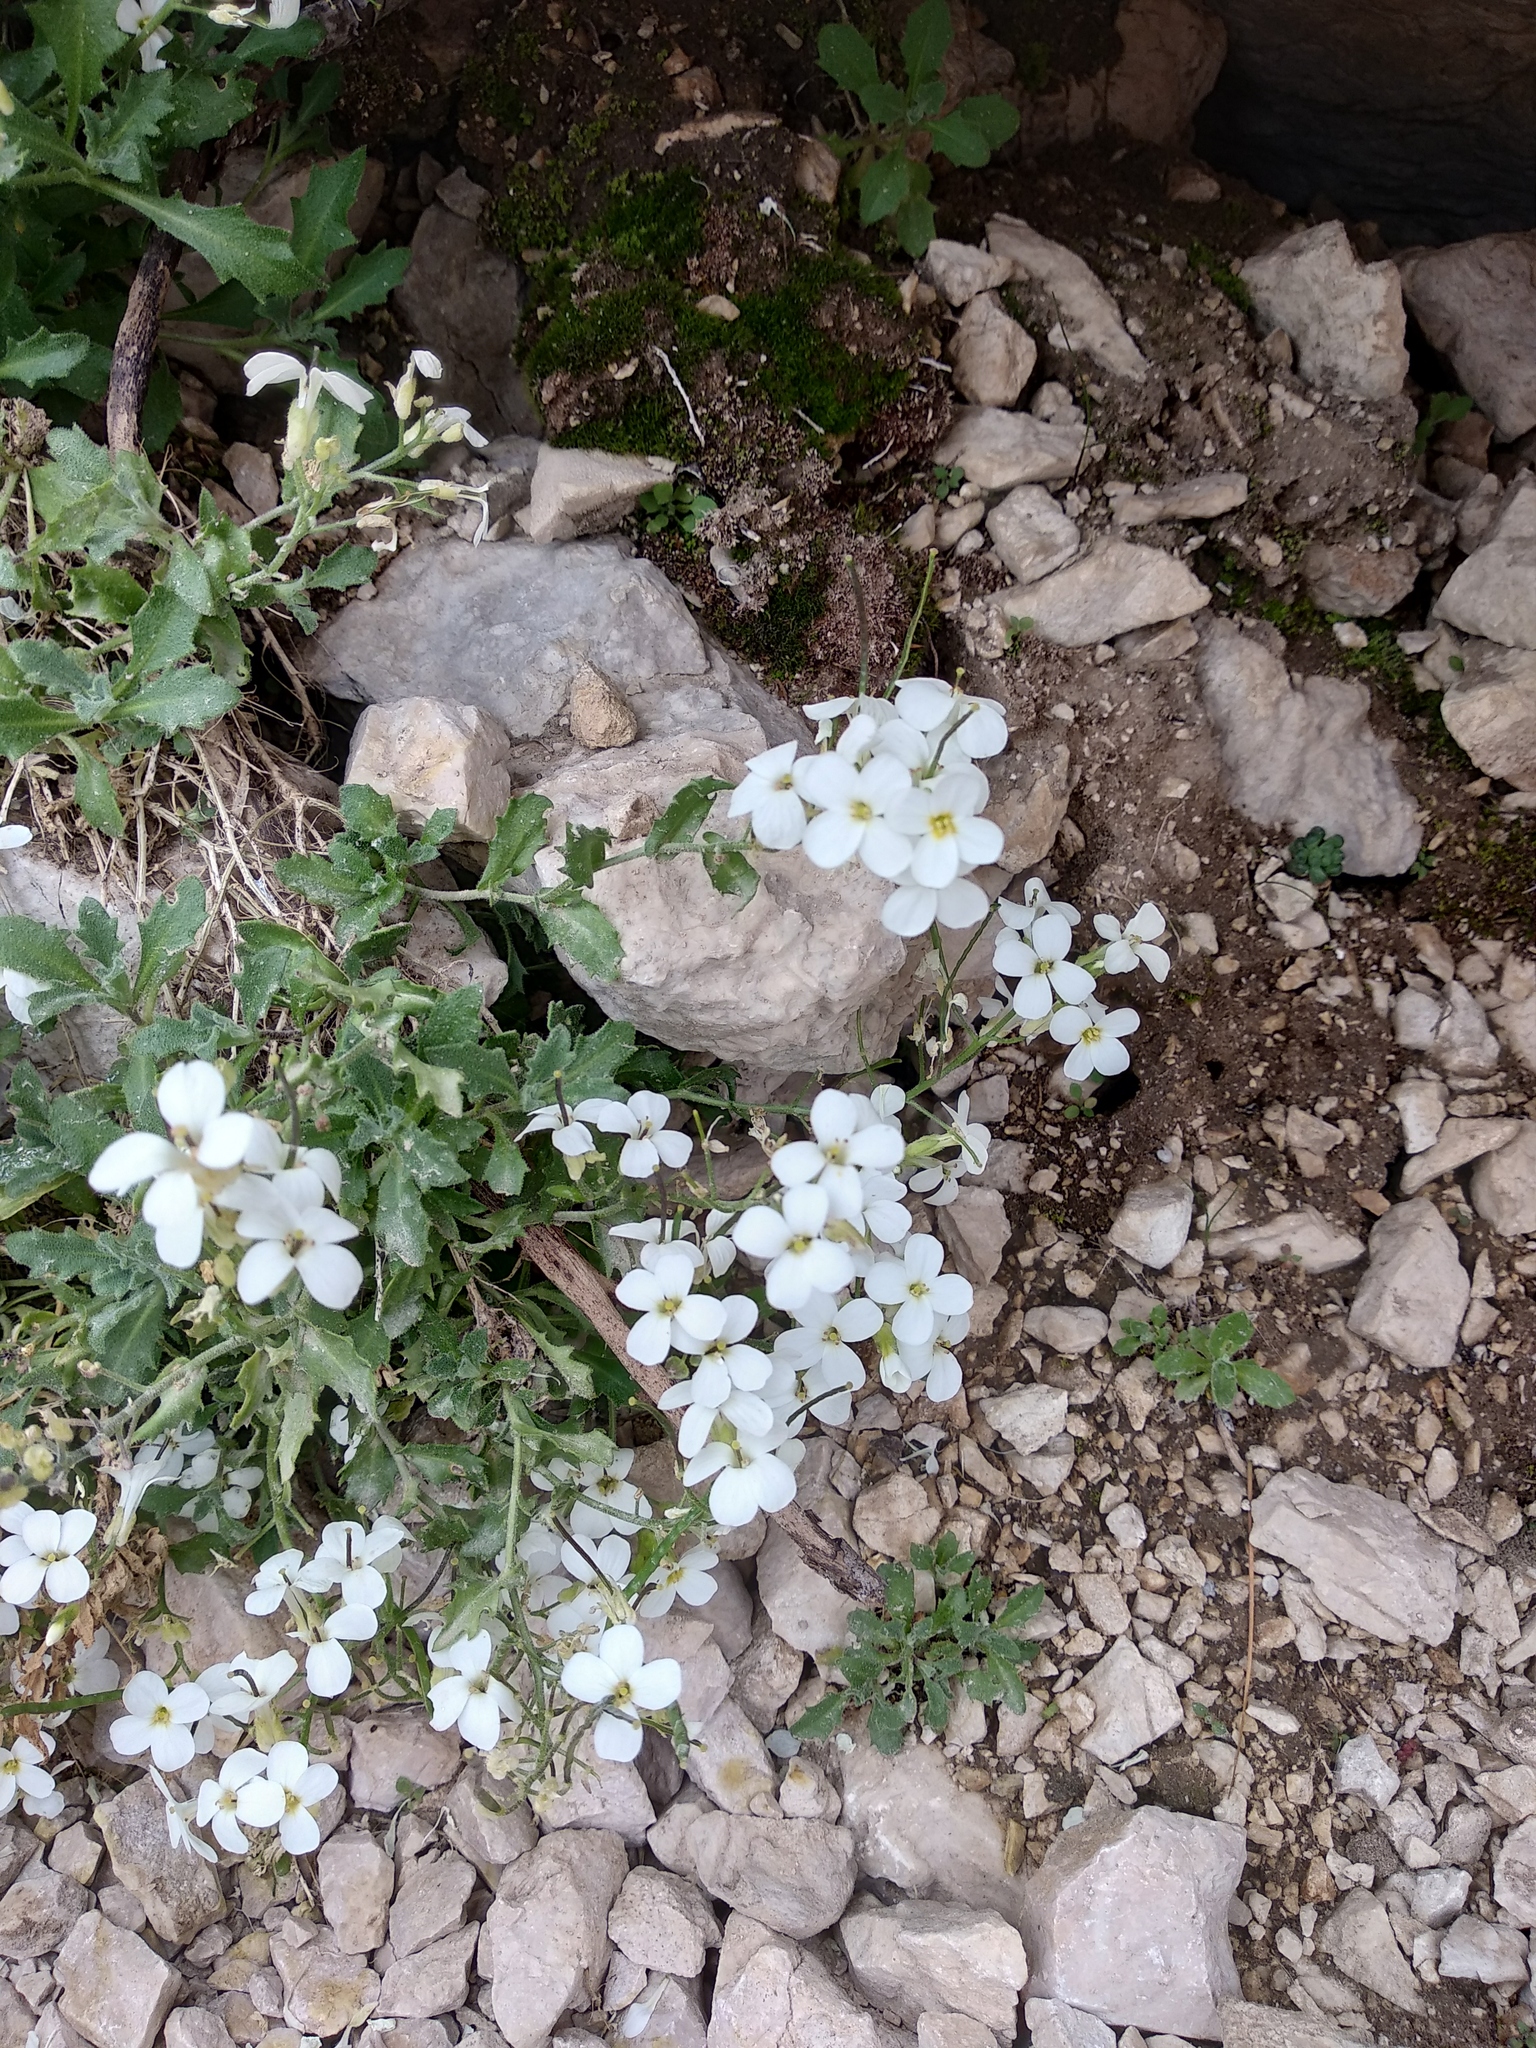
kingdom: Plantae
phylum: Tracheophyta
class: Magnoliopsida
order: Brassicales
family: Brassicaceae
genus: Arabis
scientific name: Arabis alpina
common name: Alpine rock-cress
